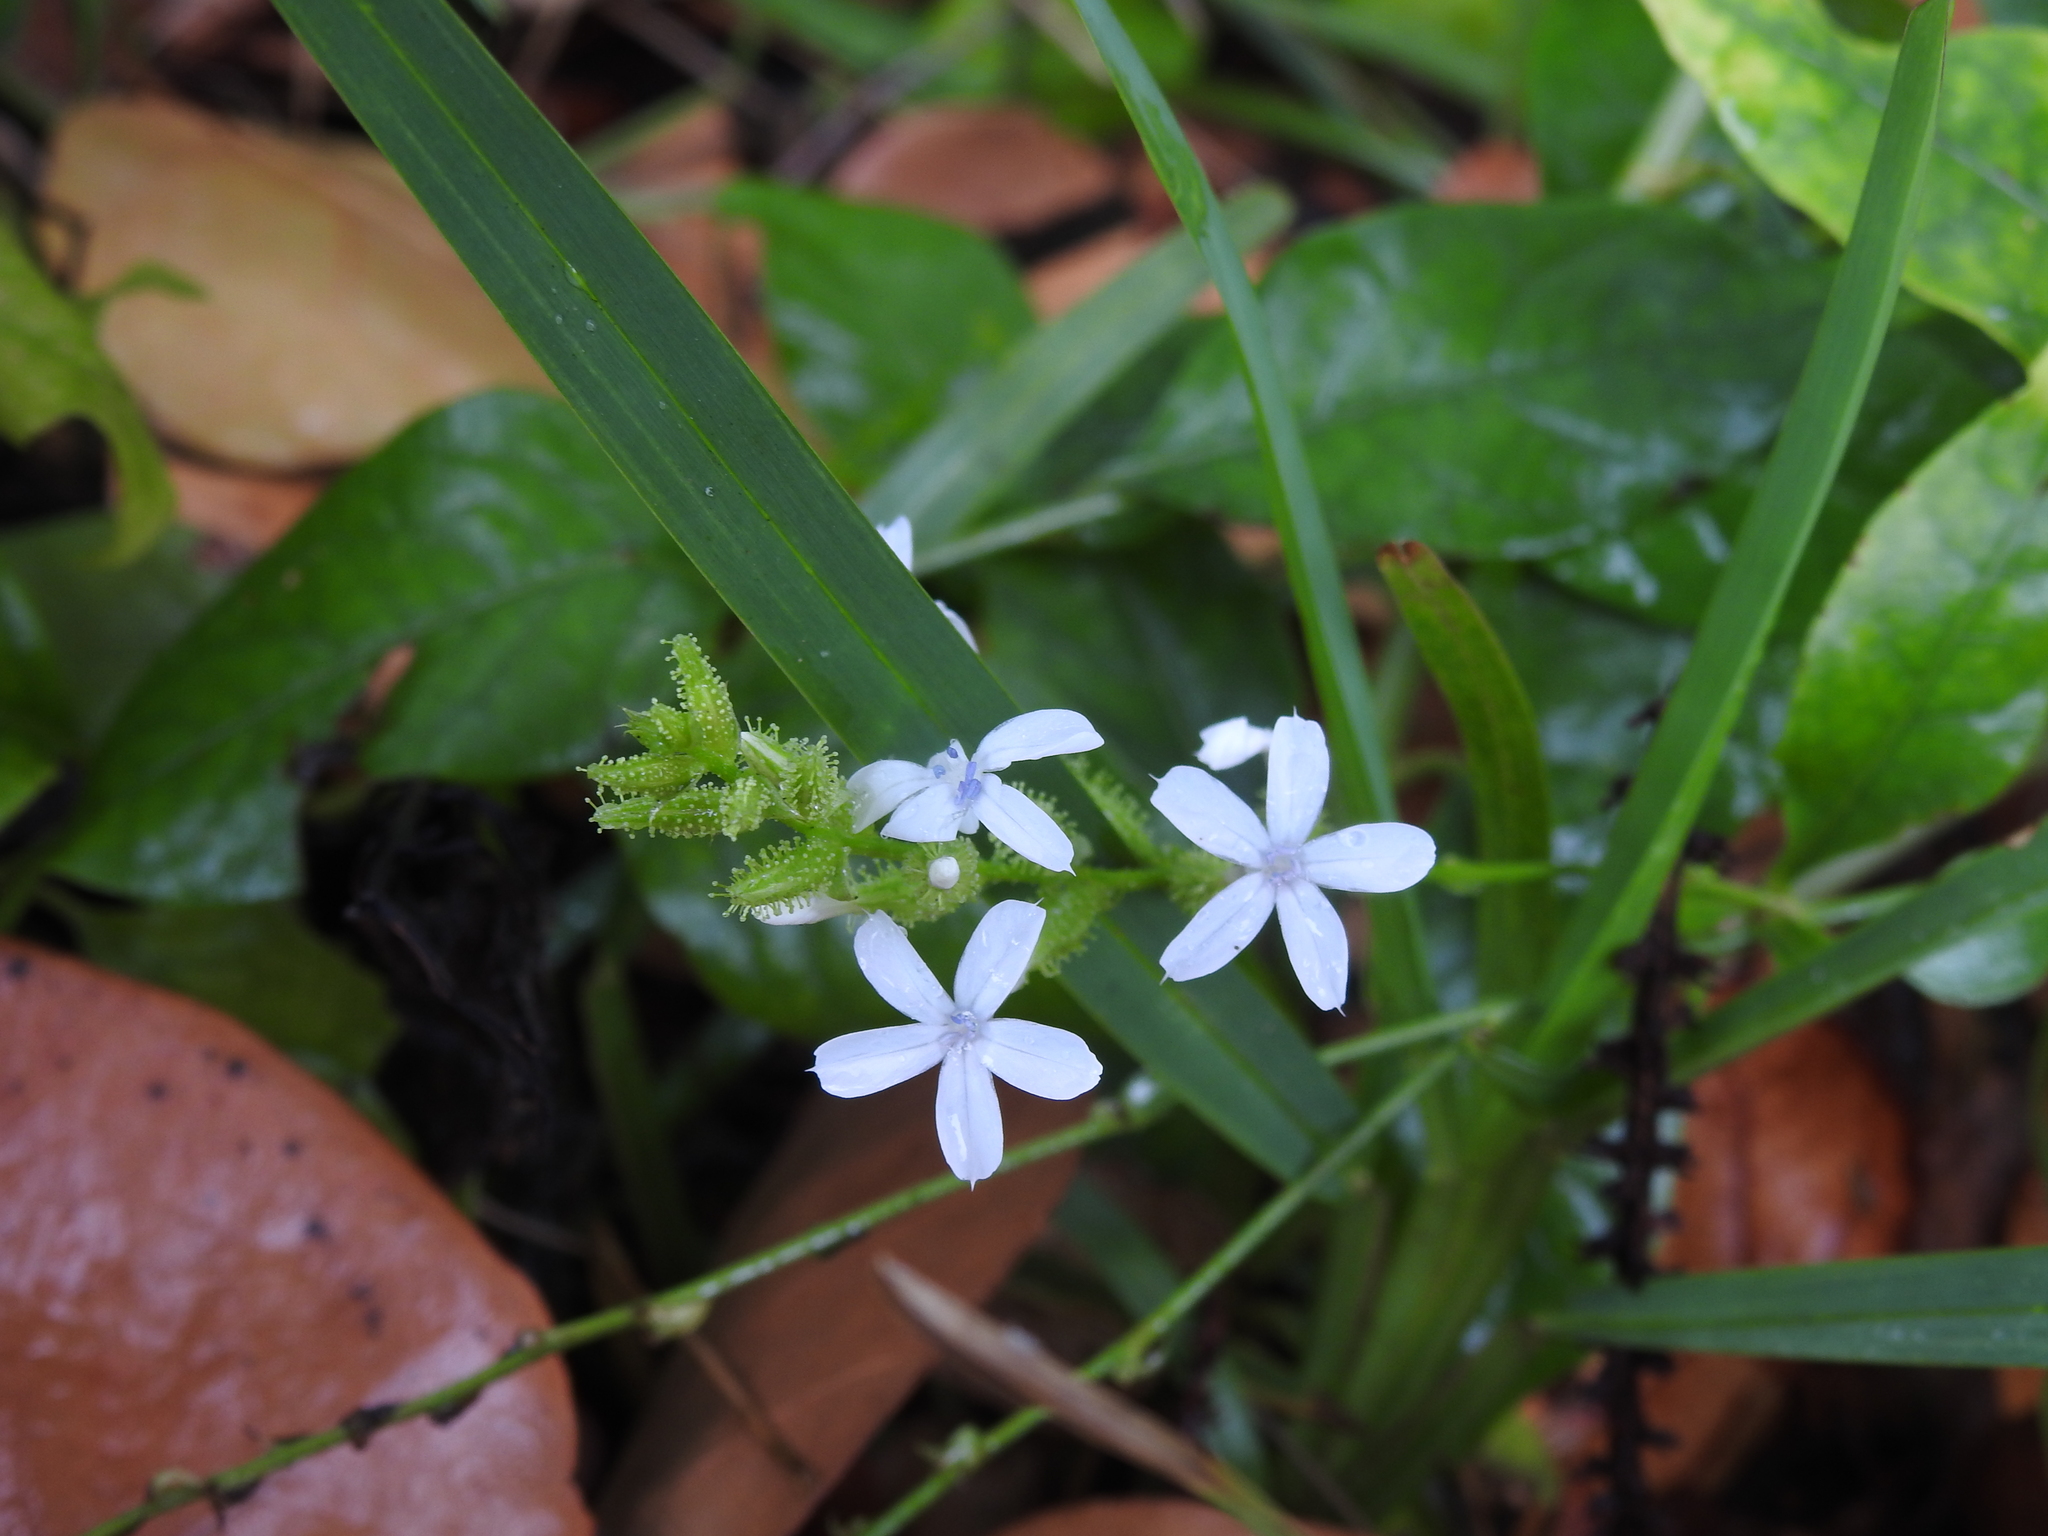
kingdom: Plantae
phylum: Tracheophyta
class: Magnoliopsida
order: Caryophyllales
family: Plumbaginaceae
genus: Plumbago
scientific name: Plumbago zeylanica
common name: Doctorbush
